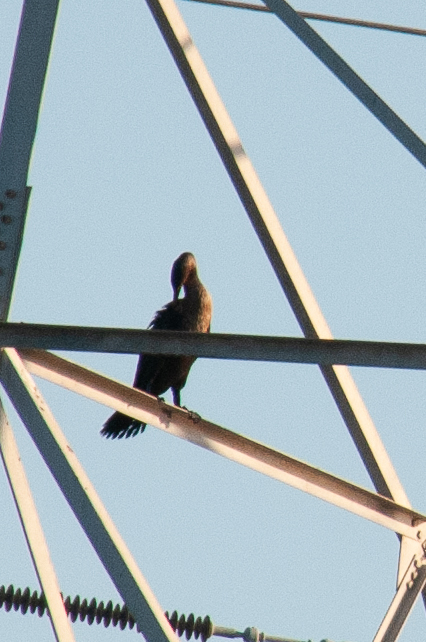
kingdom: Animalia
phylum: Chordata
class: Aves
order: Suliformes
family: Phalacrocoracidae
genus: Phalacrocorax
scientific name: Phalacrocorax auritus
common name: Double-crested cormorant
